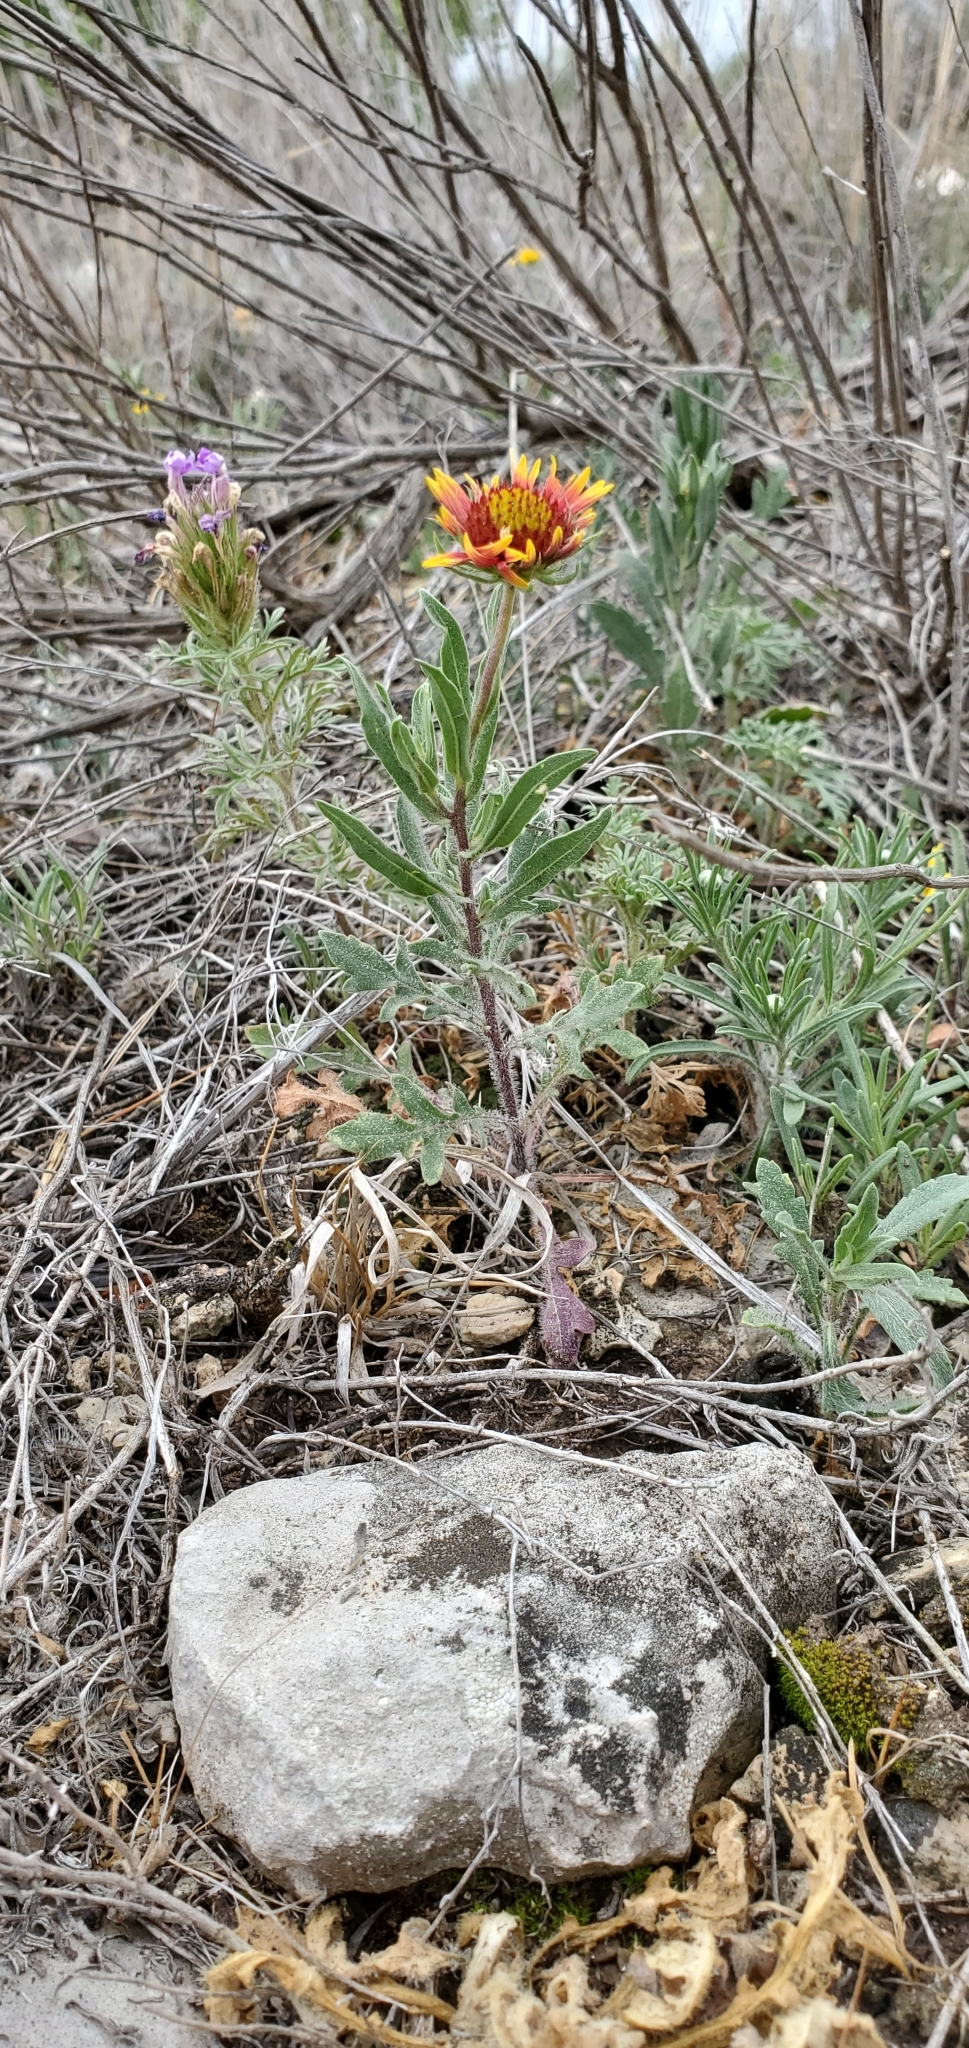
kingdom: Plantae
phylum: Tracheophyta
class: Magnoliopsida
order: Asterales
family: Asteraceae
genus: Gaillardia
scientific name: Gaillardia pulchella
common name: Firewheel
